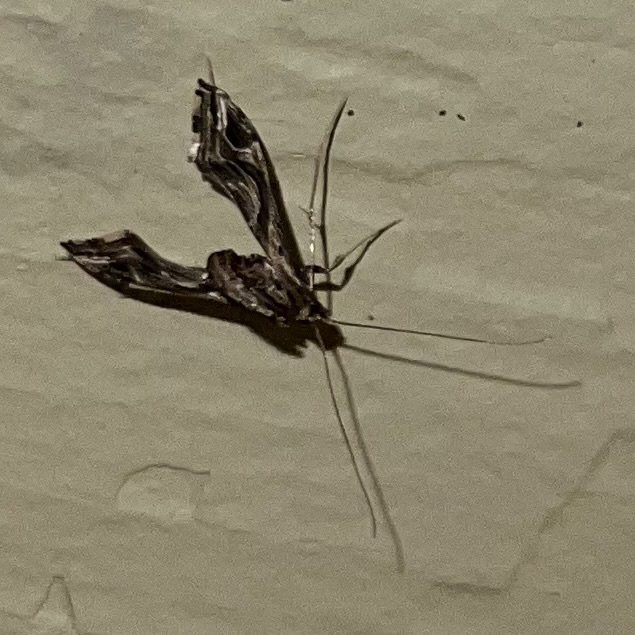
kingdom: Animalia
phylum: Arthropoda
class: Insecta
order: Lepidoptera
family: Crambidae
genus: Lineodes
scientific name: Lineodes integra
